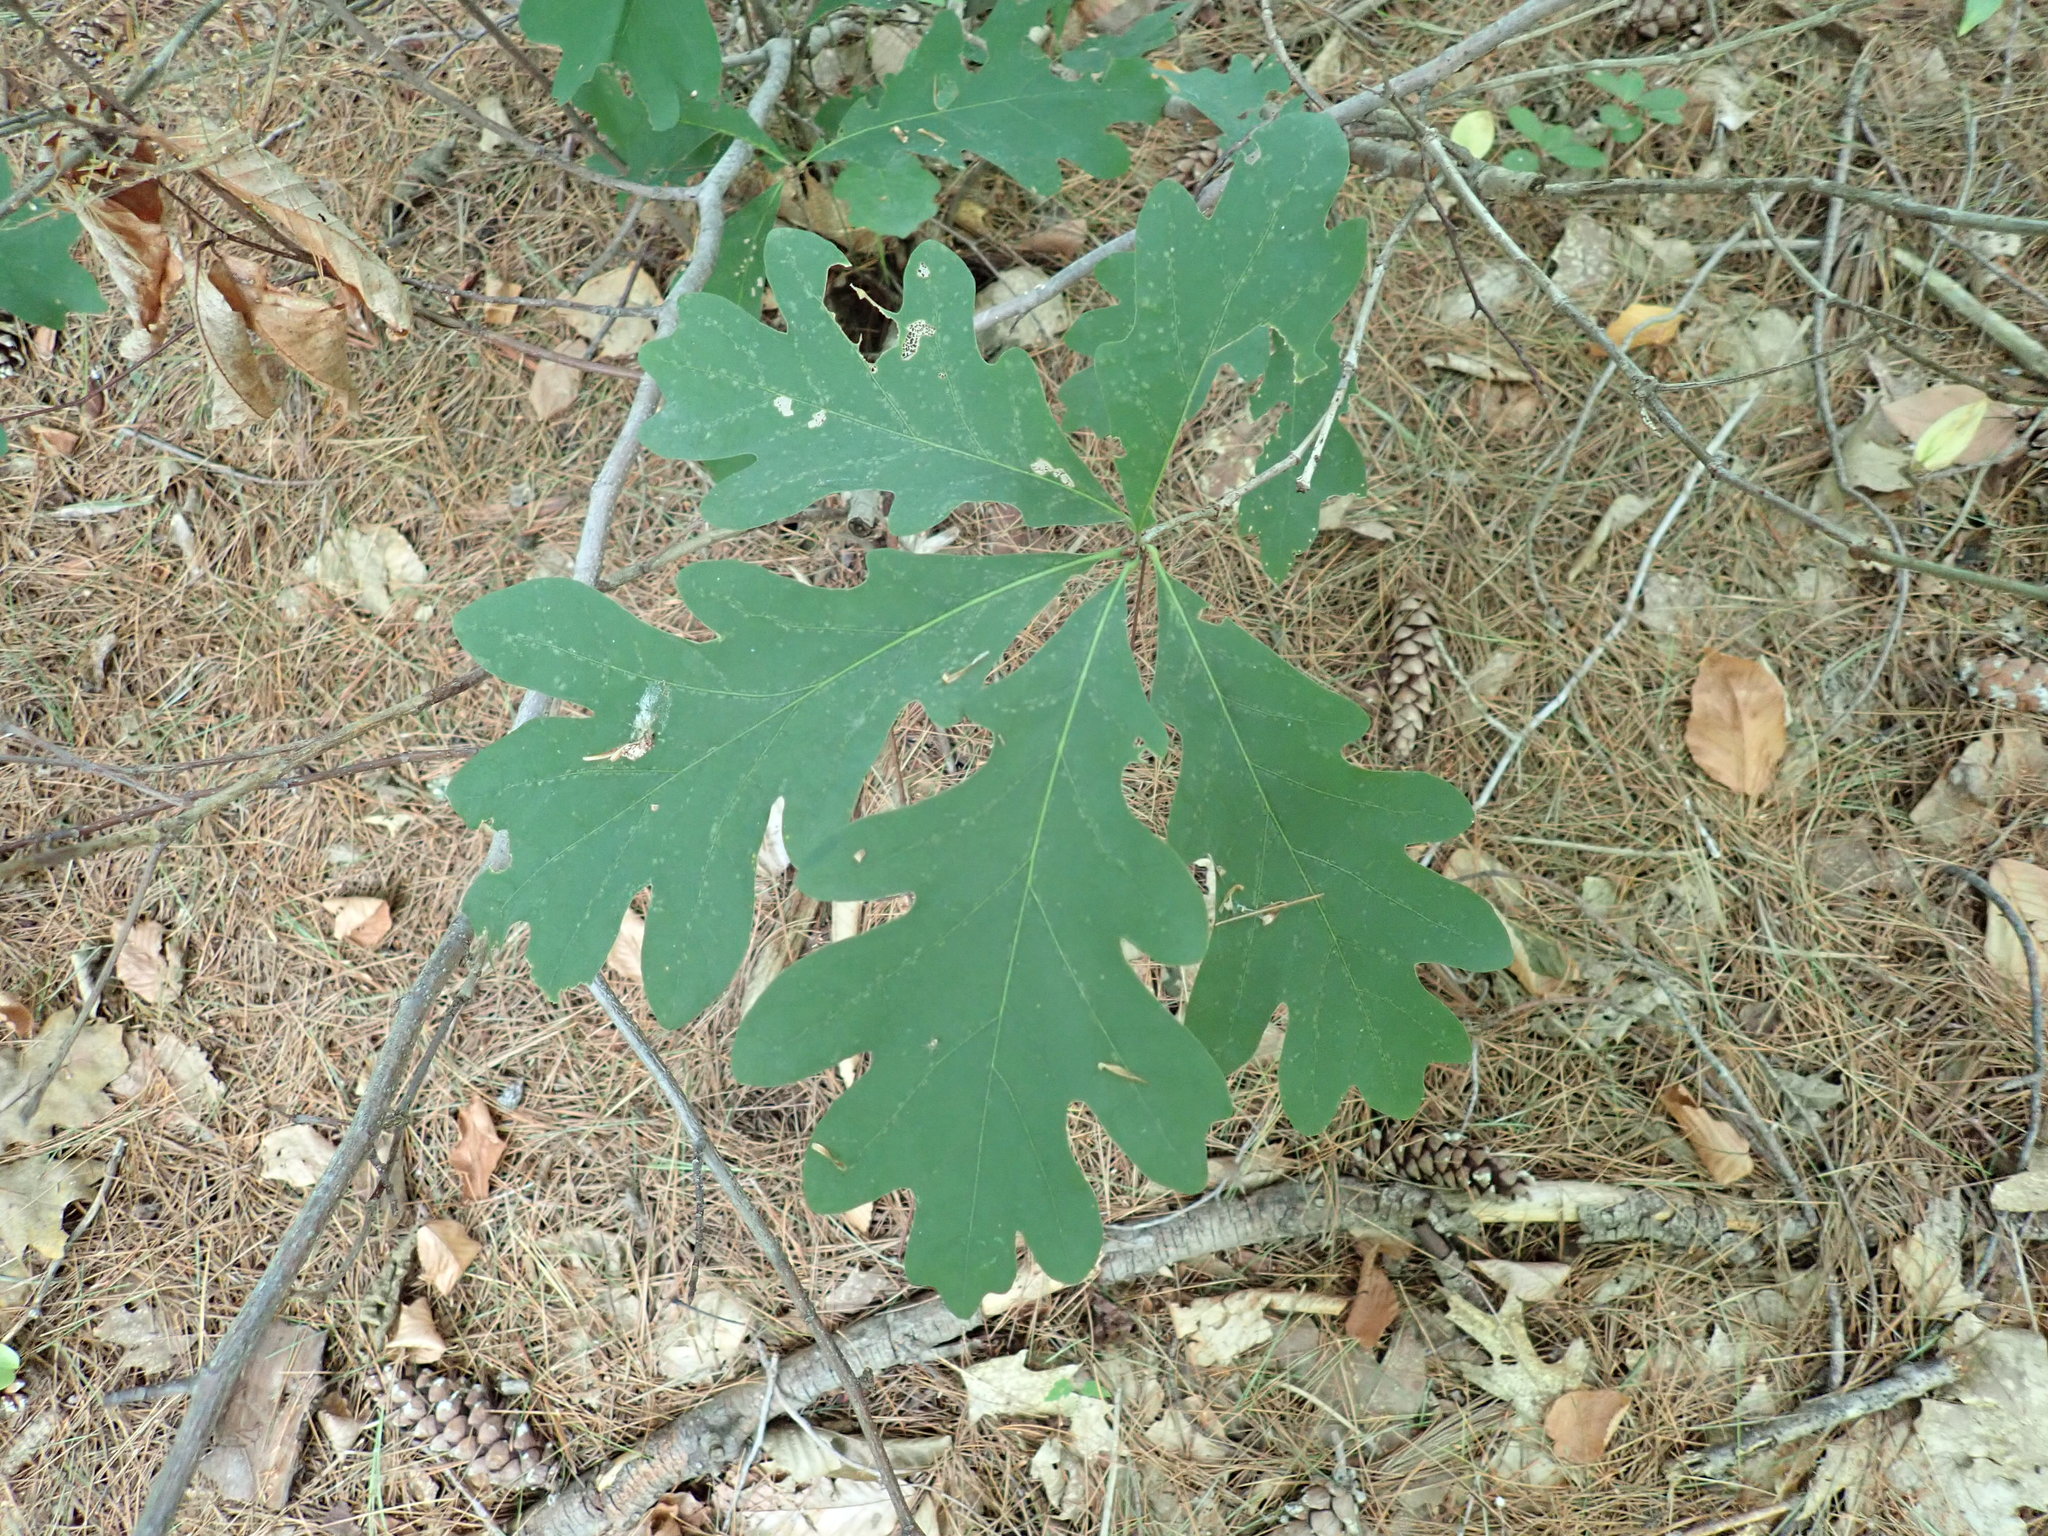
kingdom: Plantae
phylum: Tracheophyta
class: Magnoliopsida
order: Fagales
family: Fagaceae
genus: Quercus
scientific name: Quercus alba
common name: White oak
